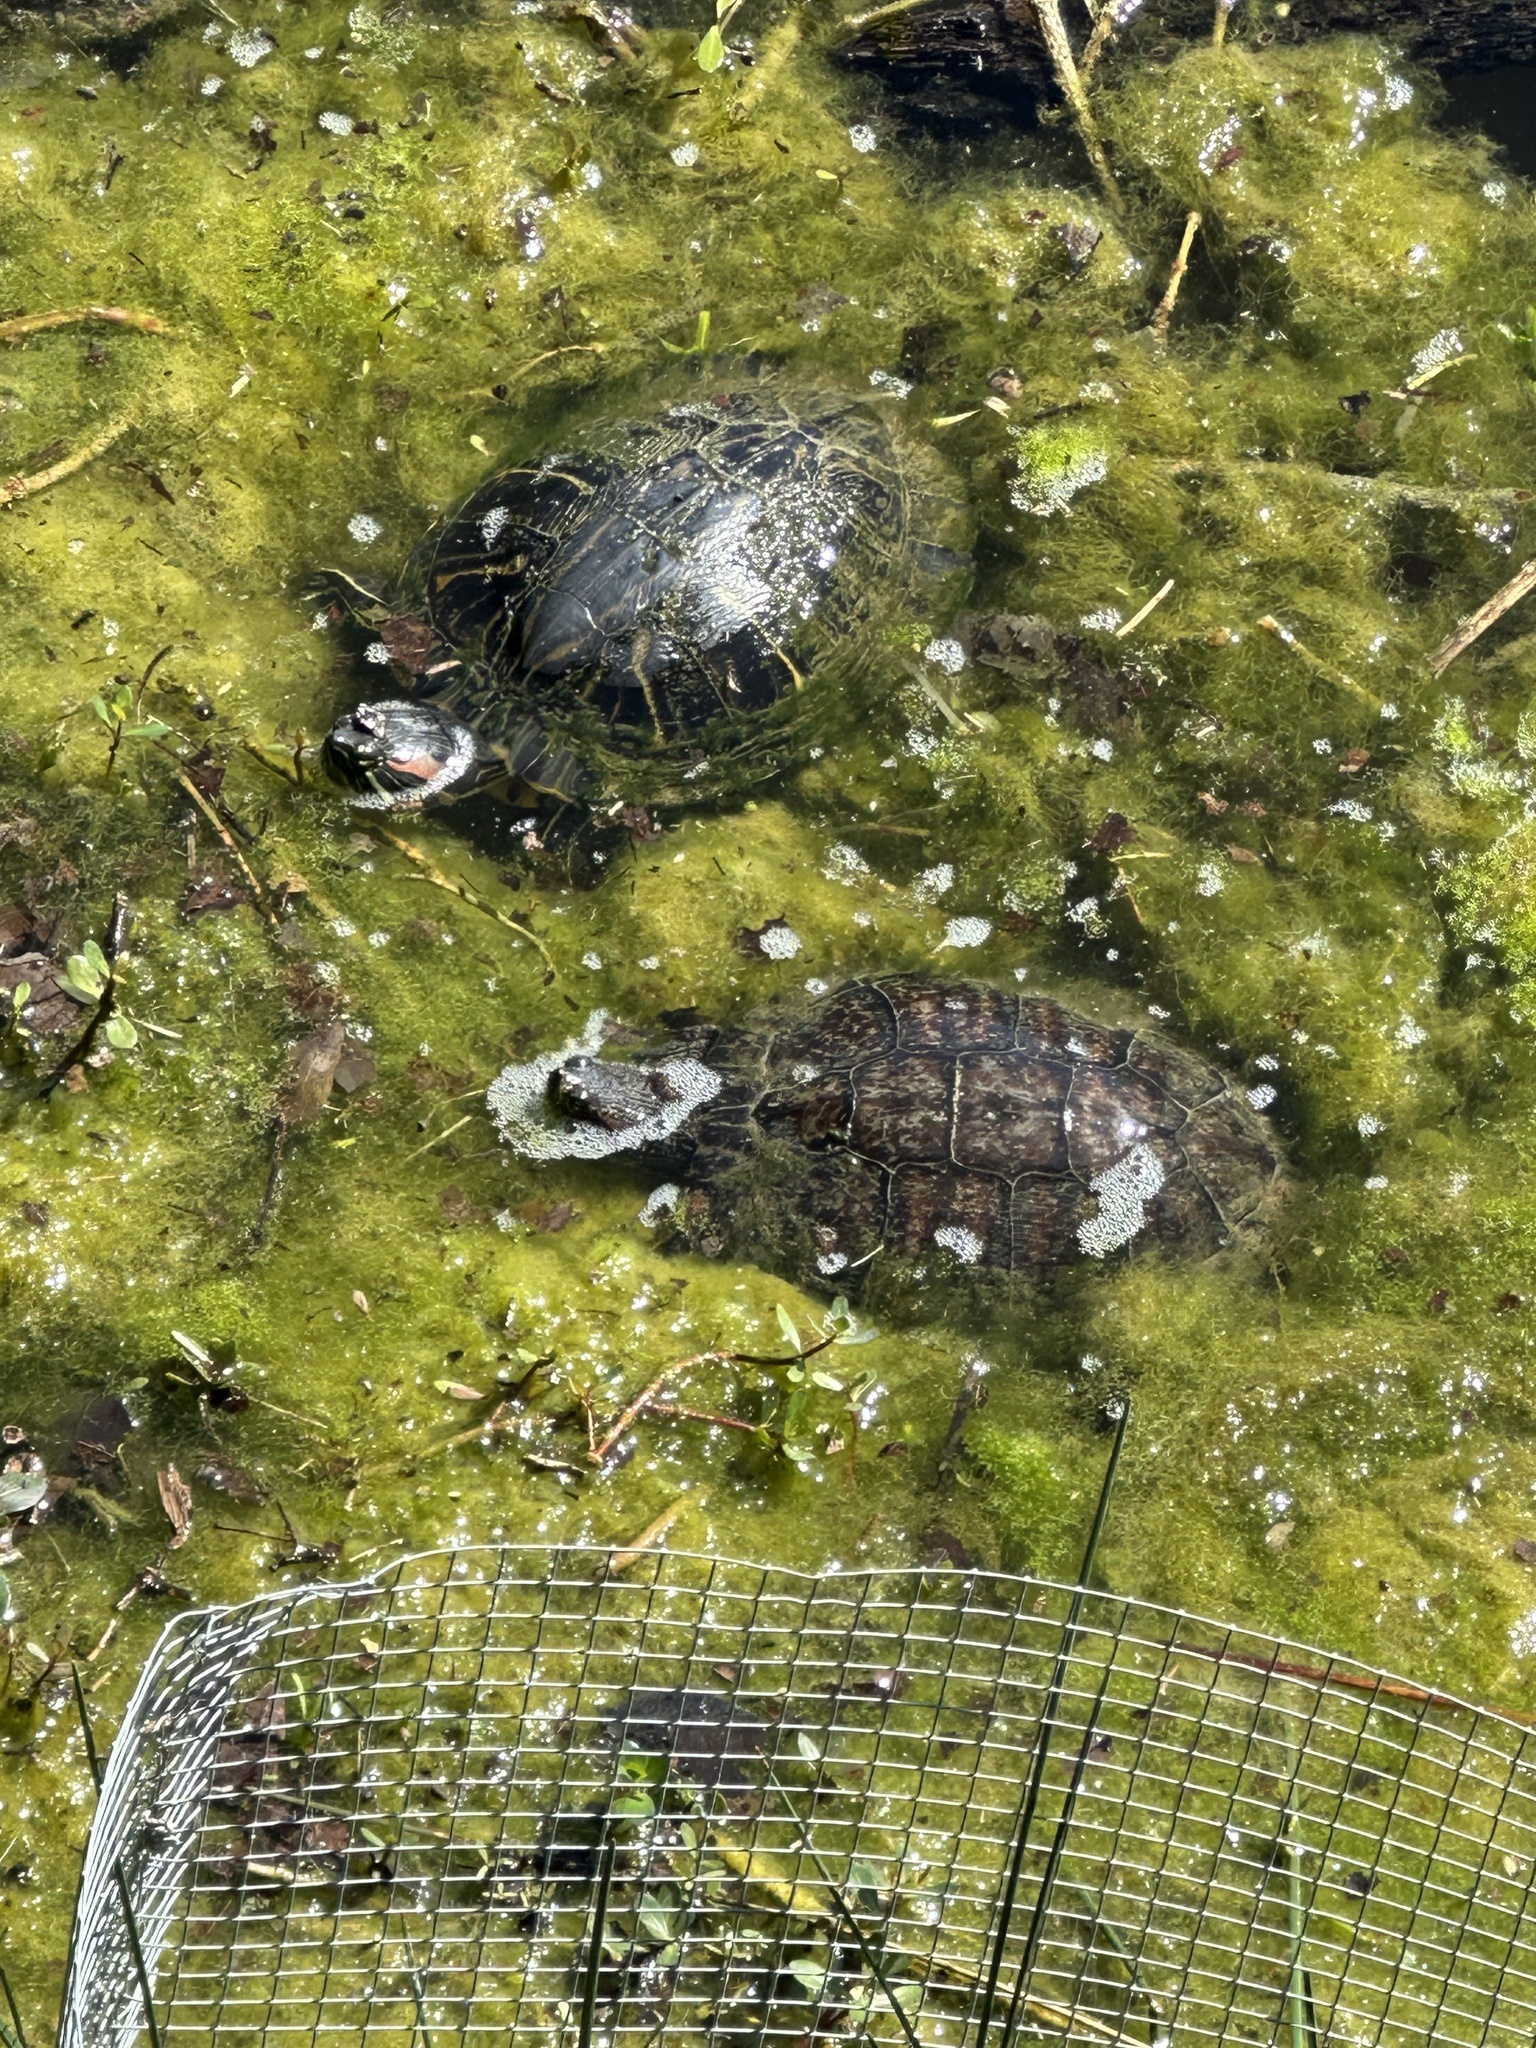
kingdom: Animalia
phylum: Chordata
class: Testudines
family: Emydidae
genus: Trachemys
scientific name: Trachemys scripta
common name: Slider
